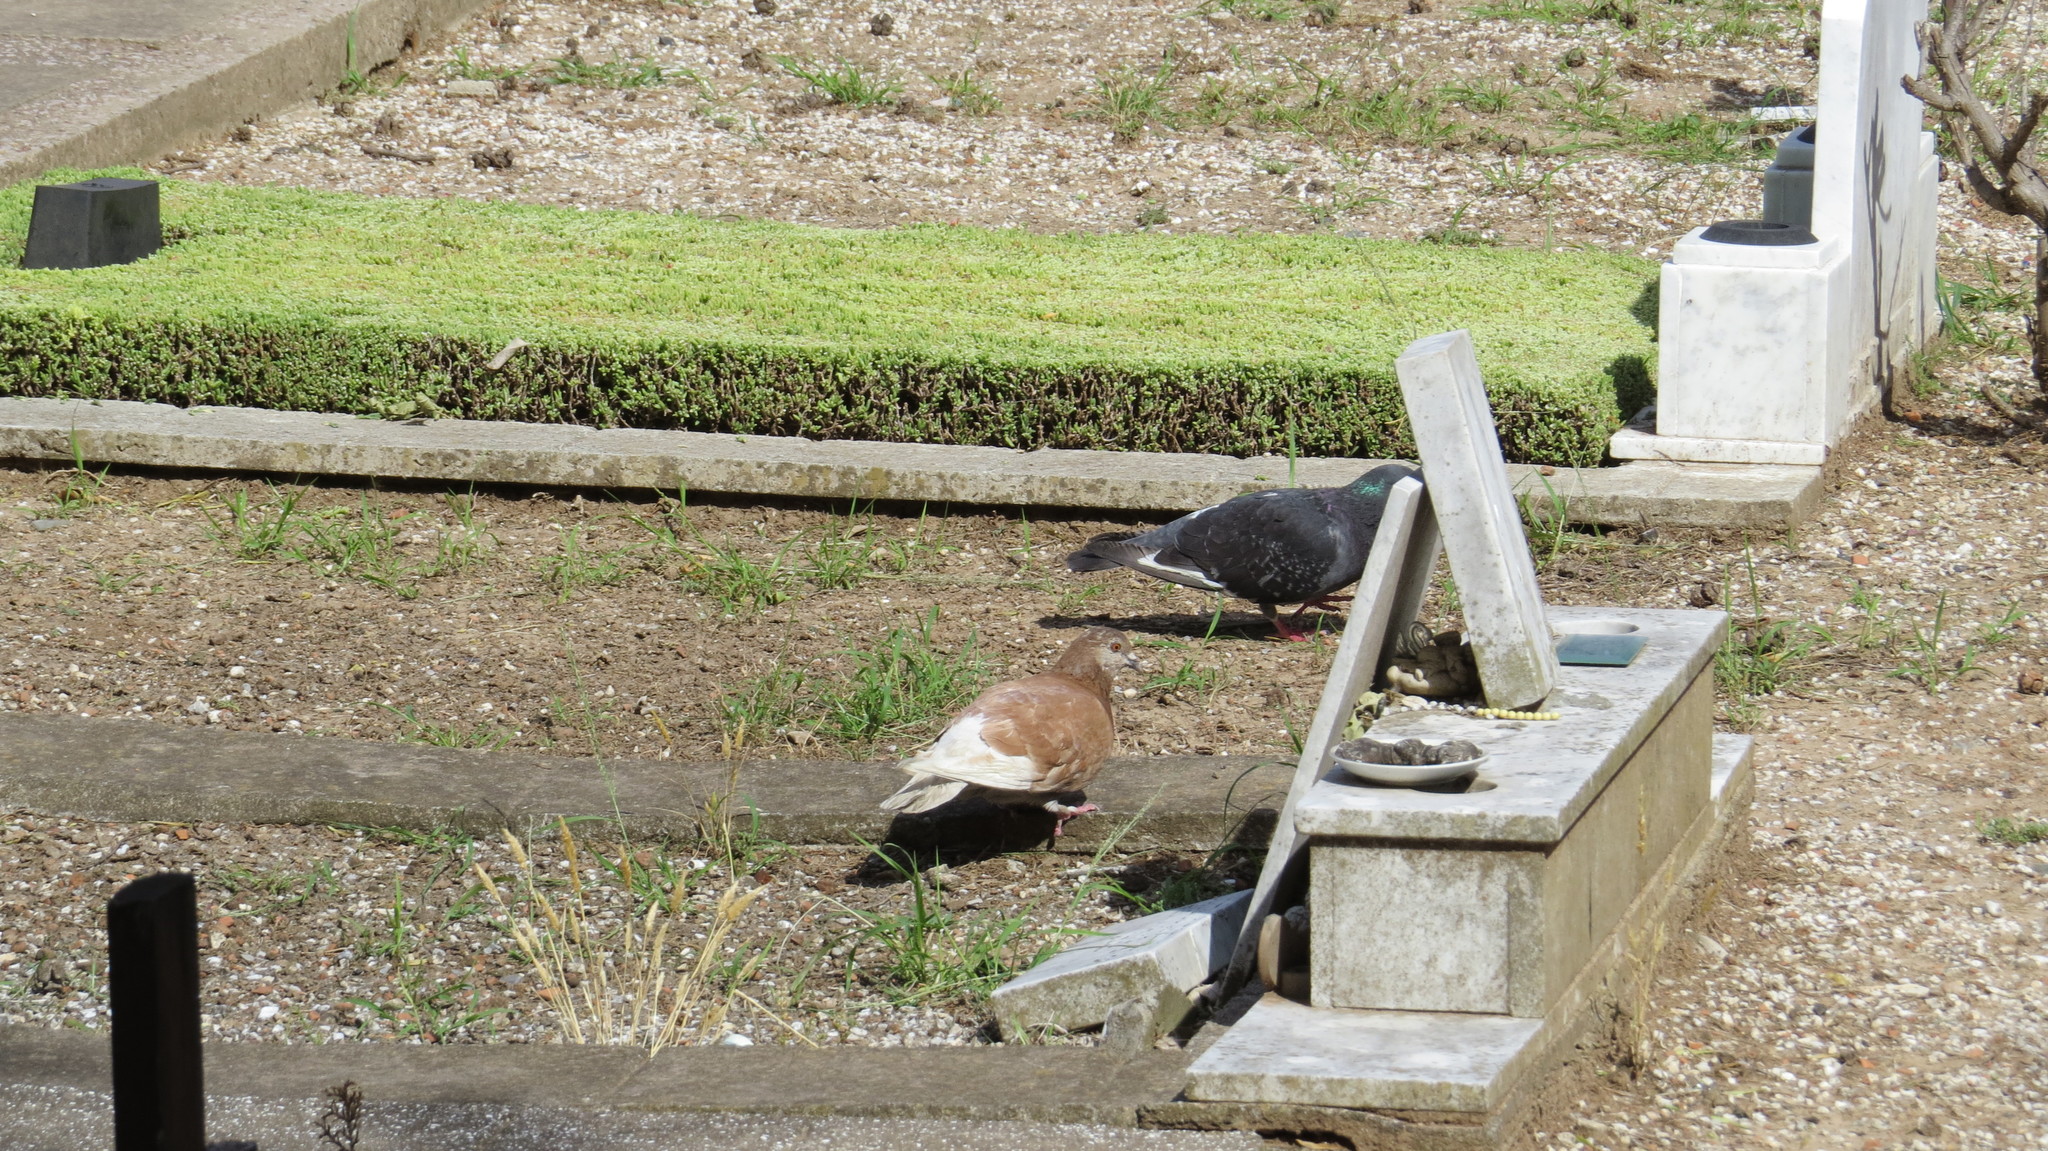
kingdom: Animalia
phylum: Chordata
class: Aves
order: Columbiformes
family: Columbidae
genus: Columba
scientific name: Columba livia
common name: Rock pigeon
